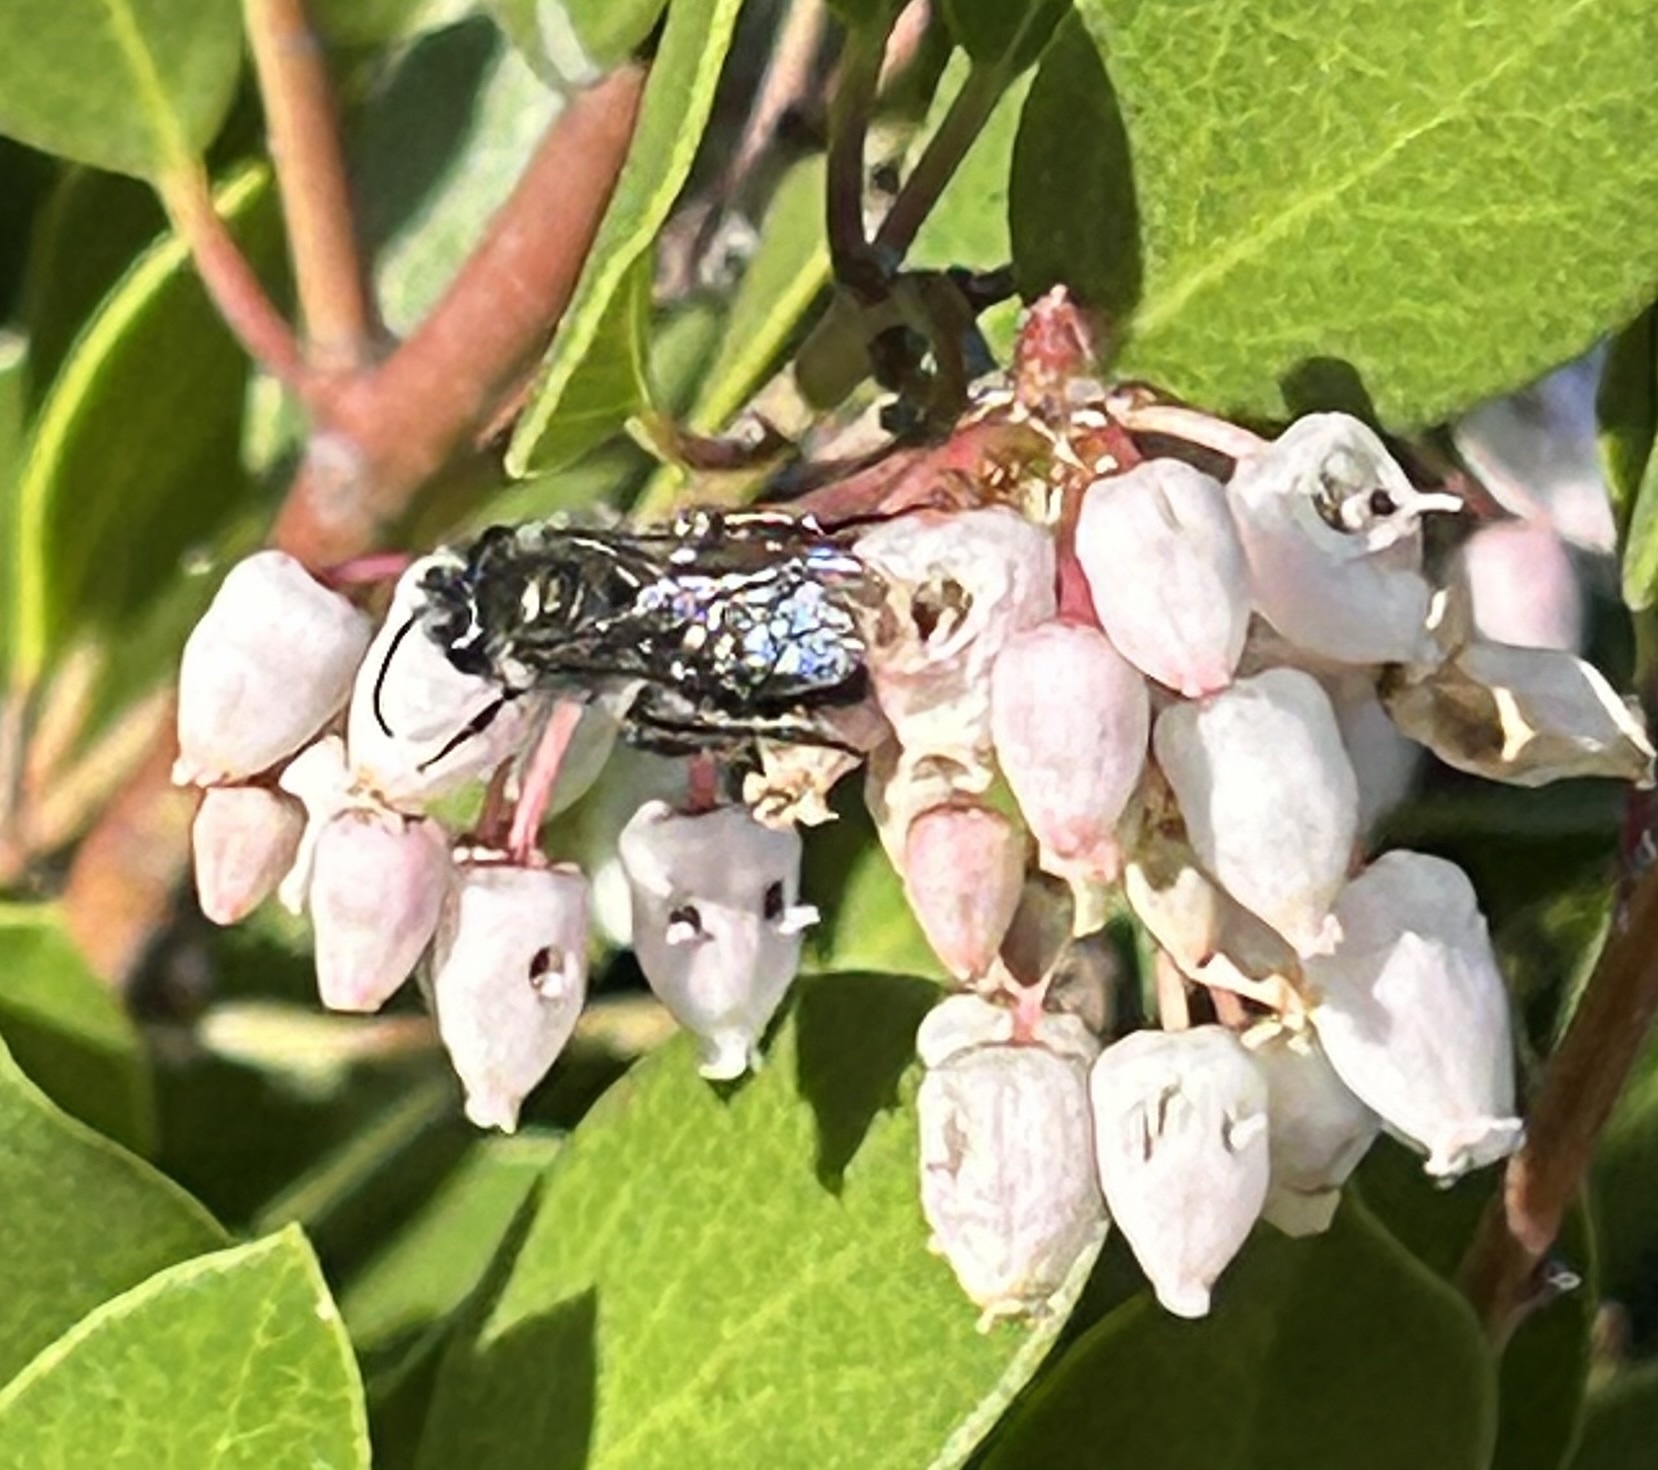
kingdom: Animalia
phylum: Arthropoda
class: Insecta
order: Hymenoptera
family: Andrenidae
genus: Andrena
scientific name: Andrena cerasifolii
